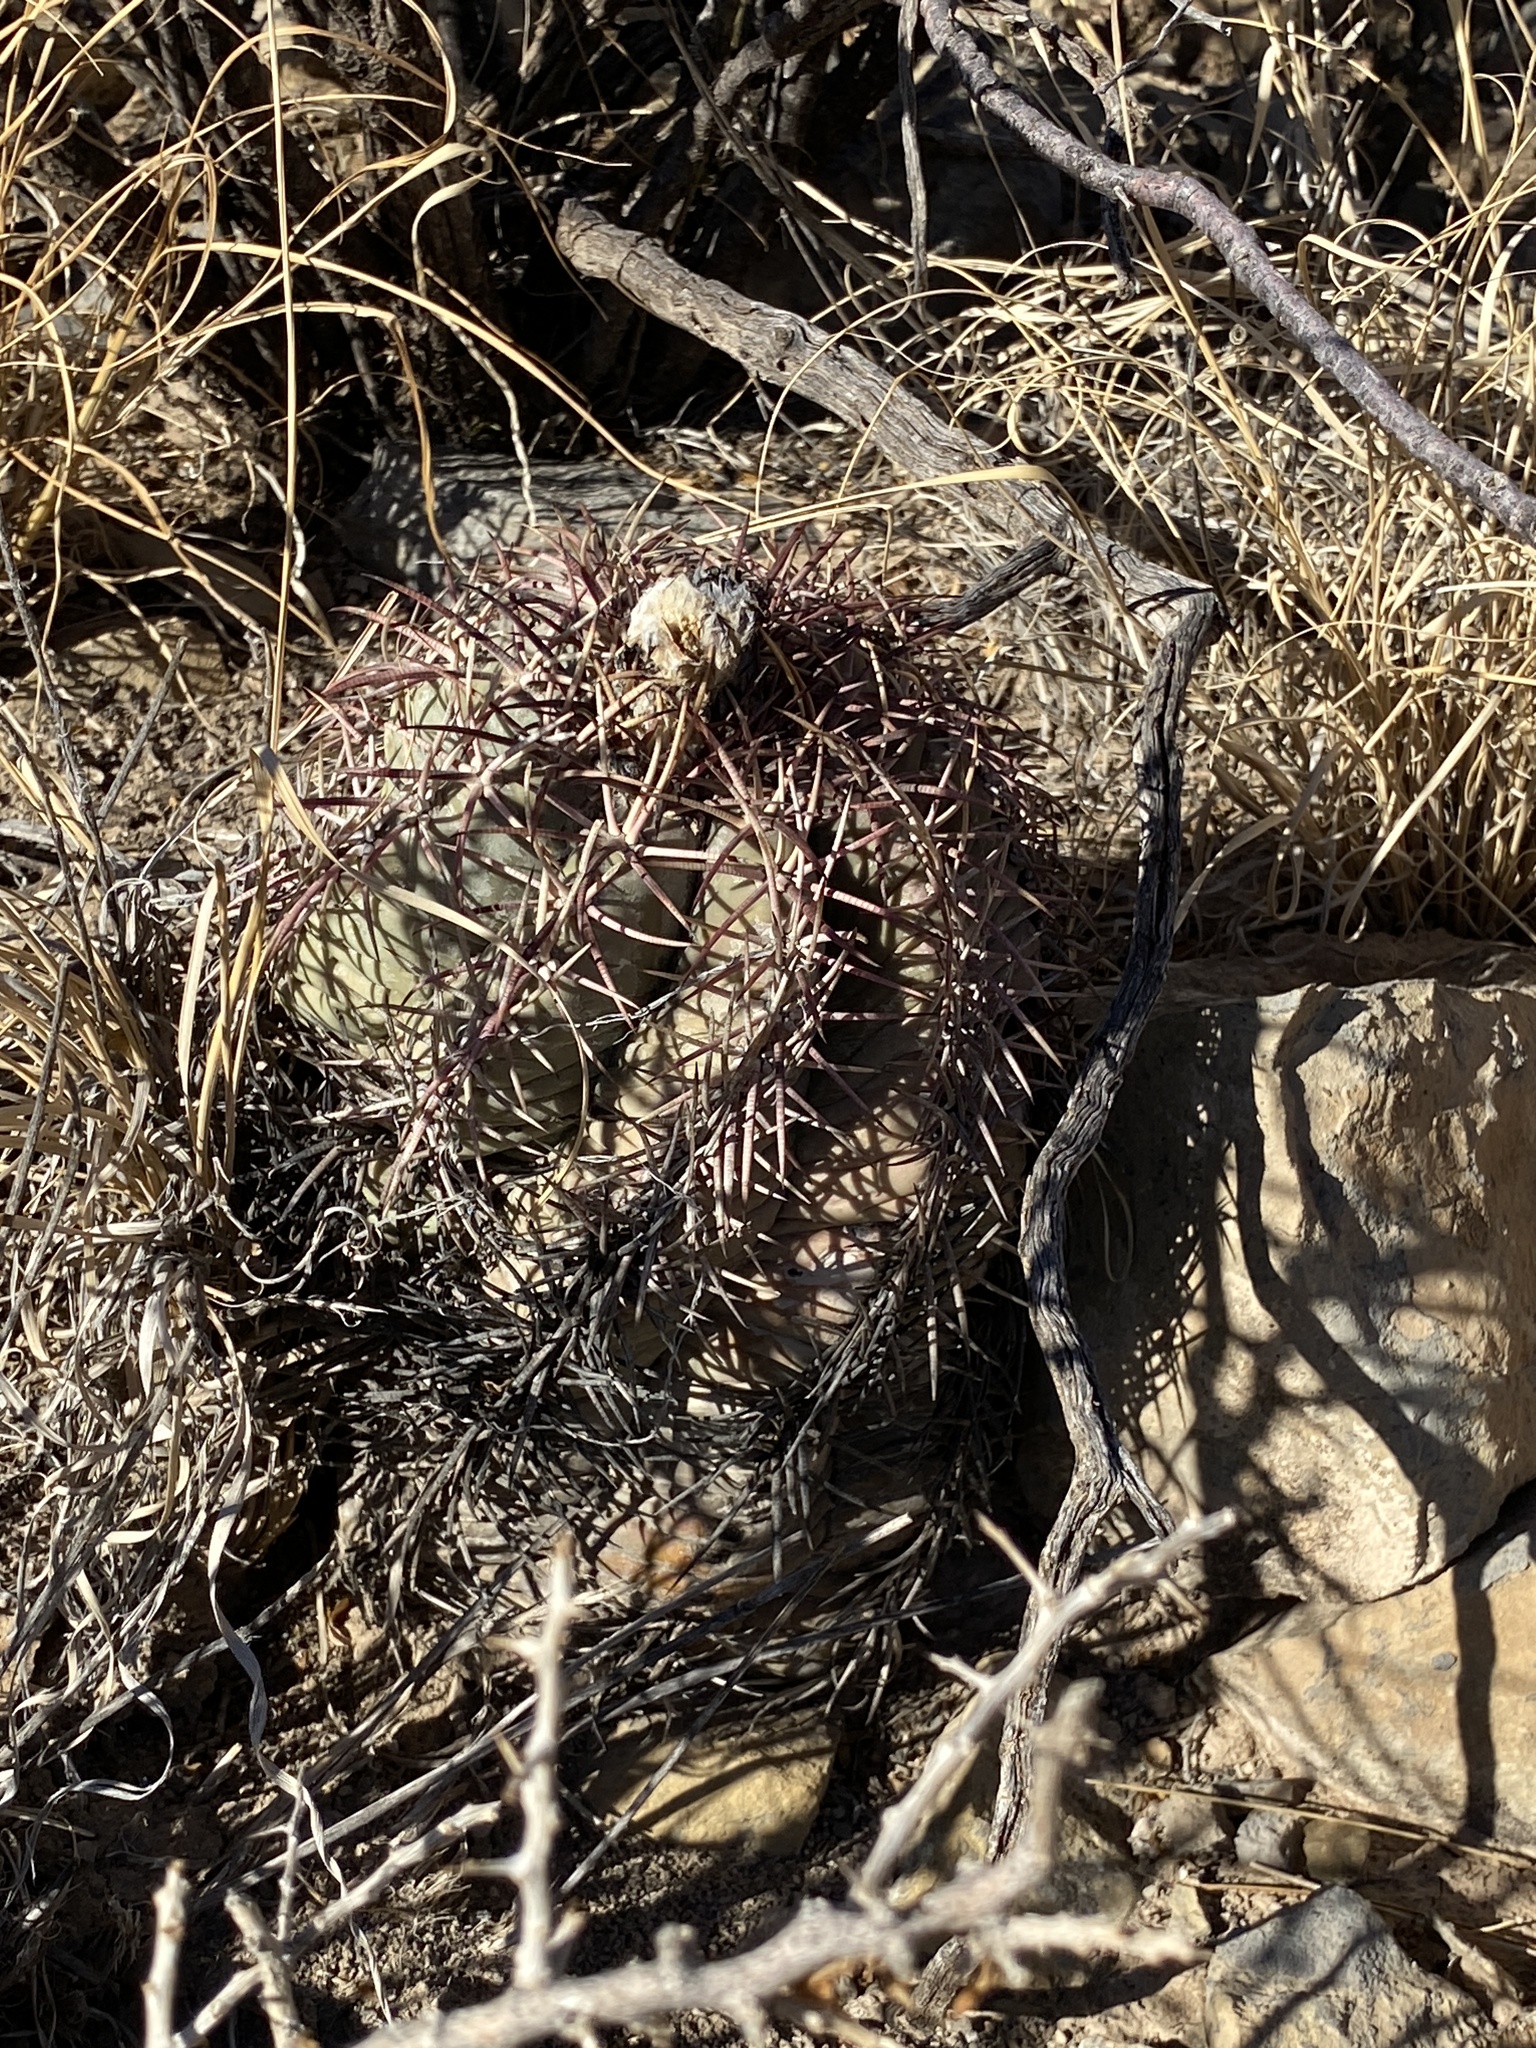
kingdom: Plantae
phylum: Tracheophyta
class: Magnoliopsida
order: Caryophyllales
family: Cactaceae
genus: Echinocactus
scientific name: Echinocactus horizonthalonius
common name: Devilshead
